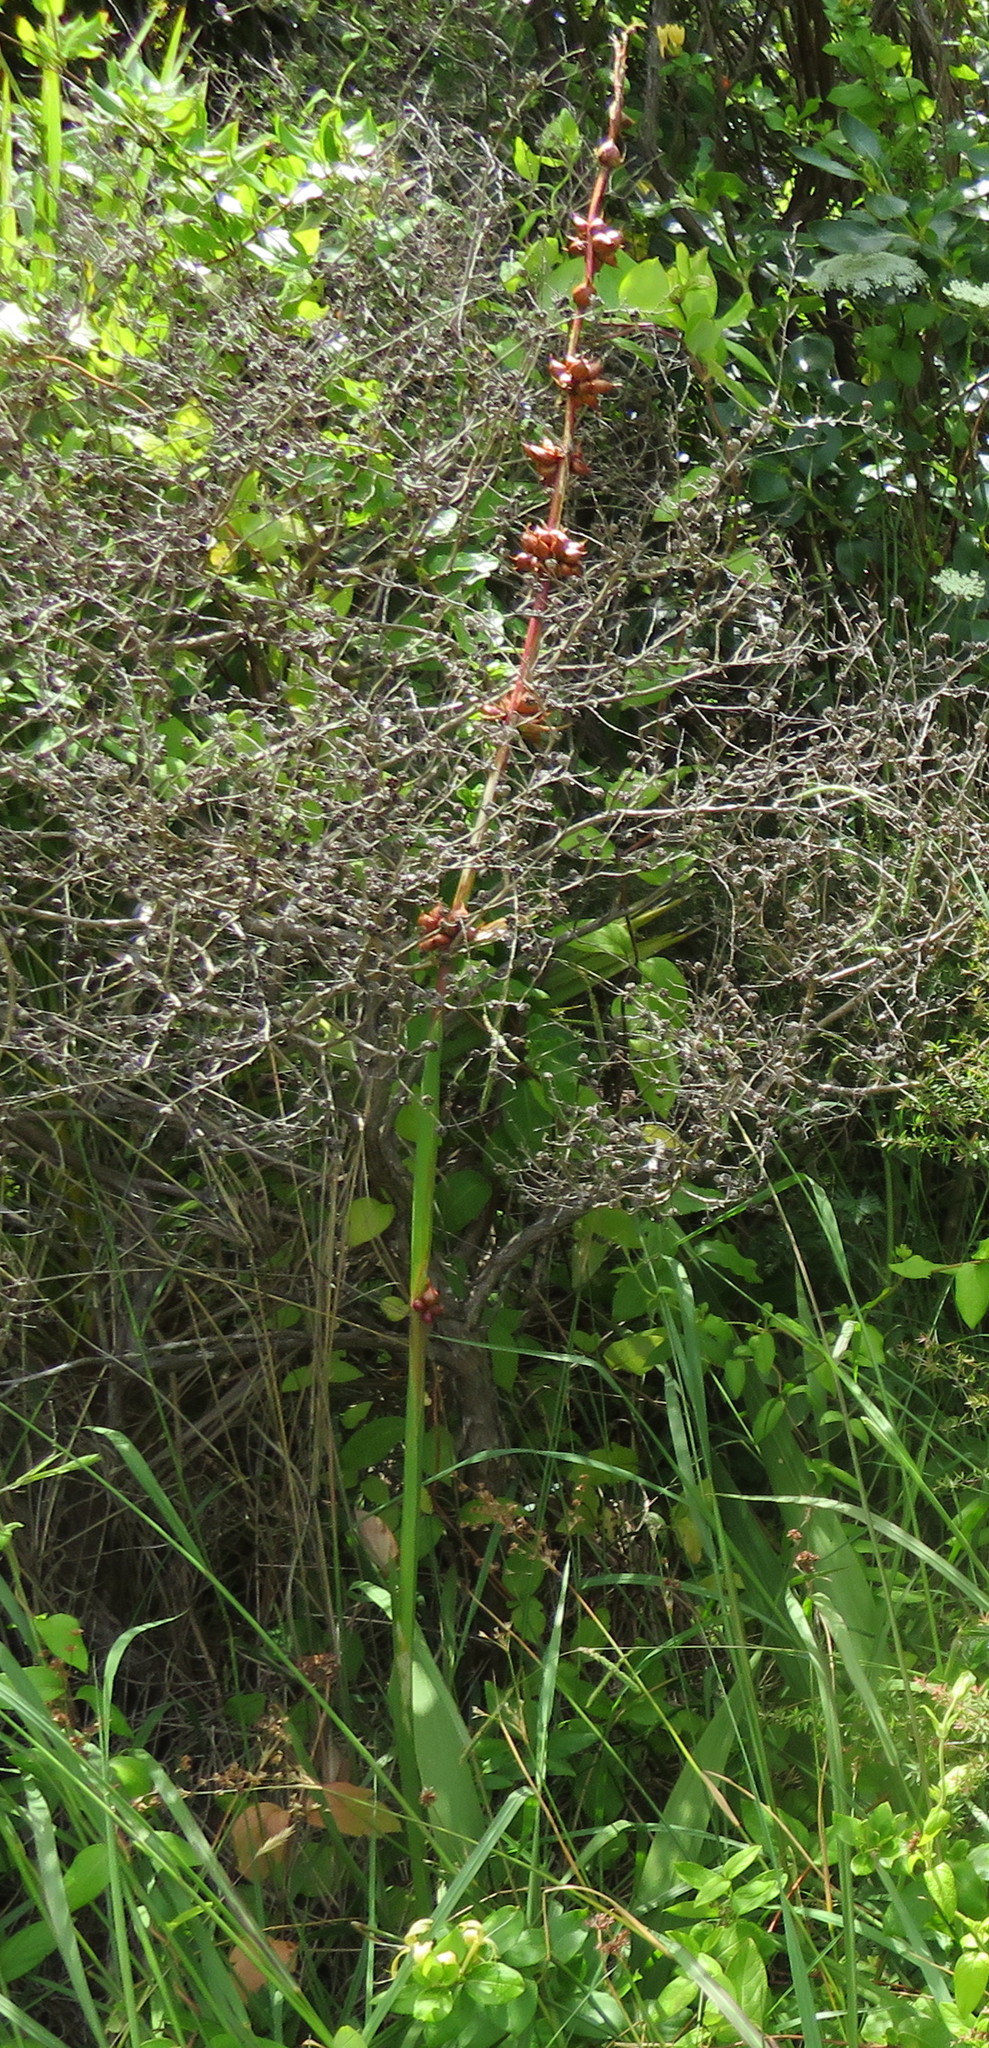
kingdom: Plantae
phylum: Tracheophyta
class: Liliopsida
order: Asparagales
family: Iridaceae
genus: Watsonia
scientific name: Watsonia meriana
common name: Bulbil bugle-lily
